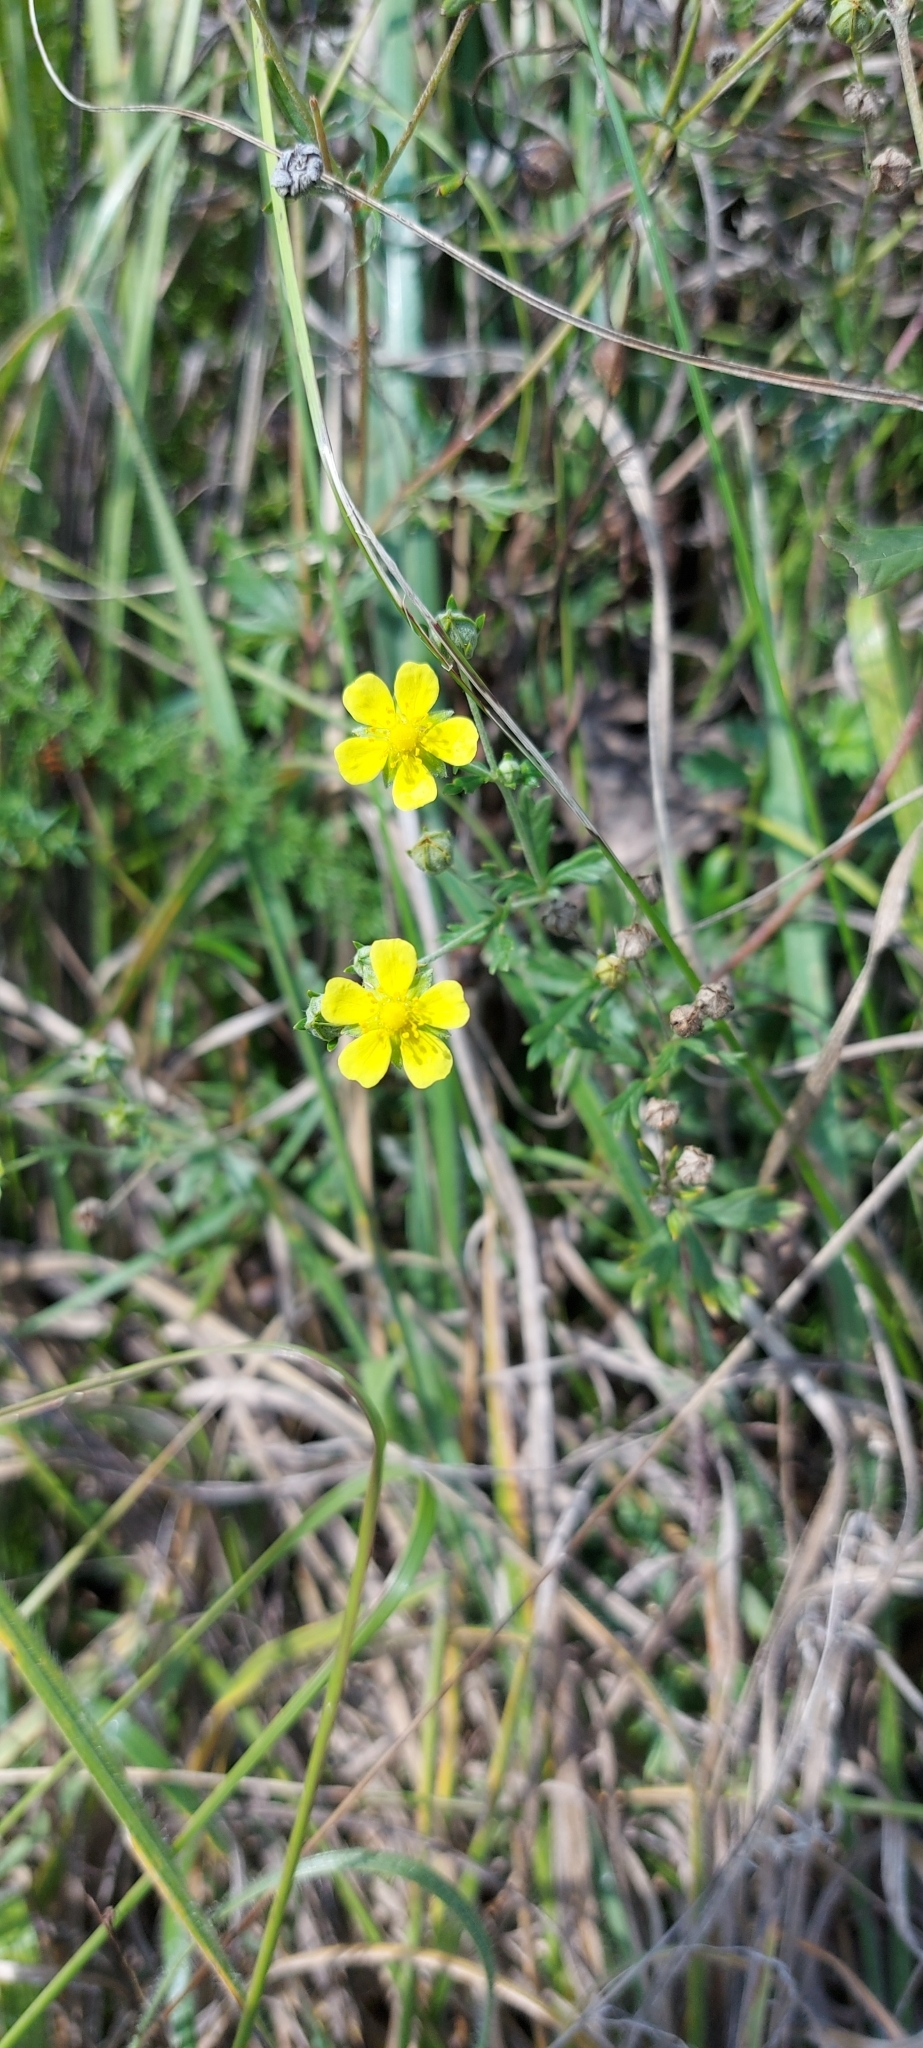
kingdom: Plantae
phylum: Tracheophyta
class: Magnoliopsida
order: Rosales
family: Rosaceae
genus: Potentilla
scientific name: Potentilla argentea
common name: Hoary cinquefoil
